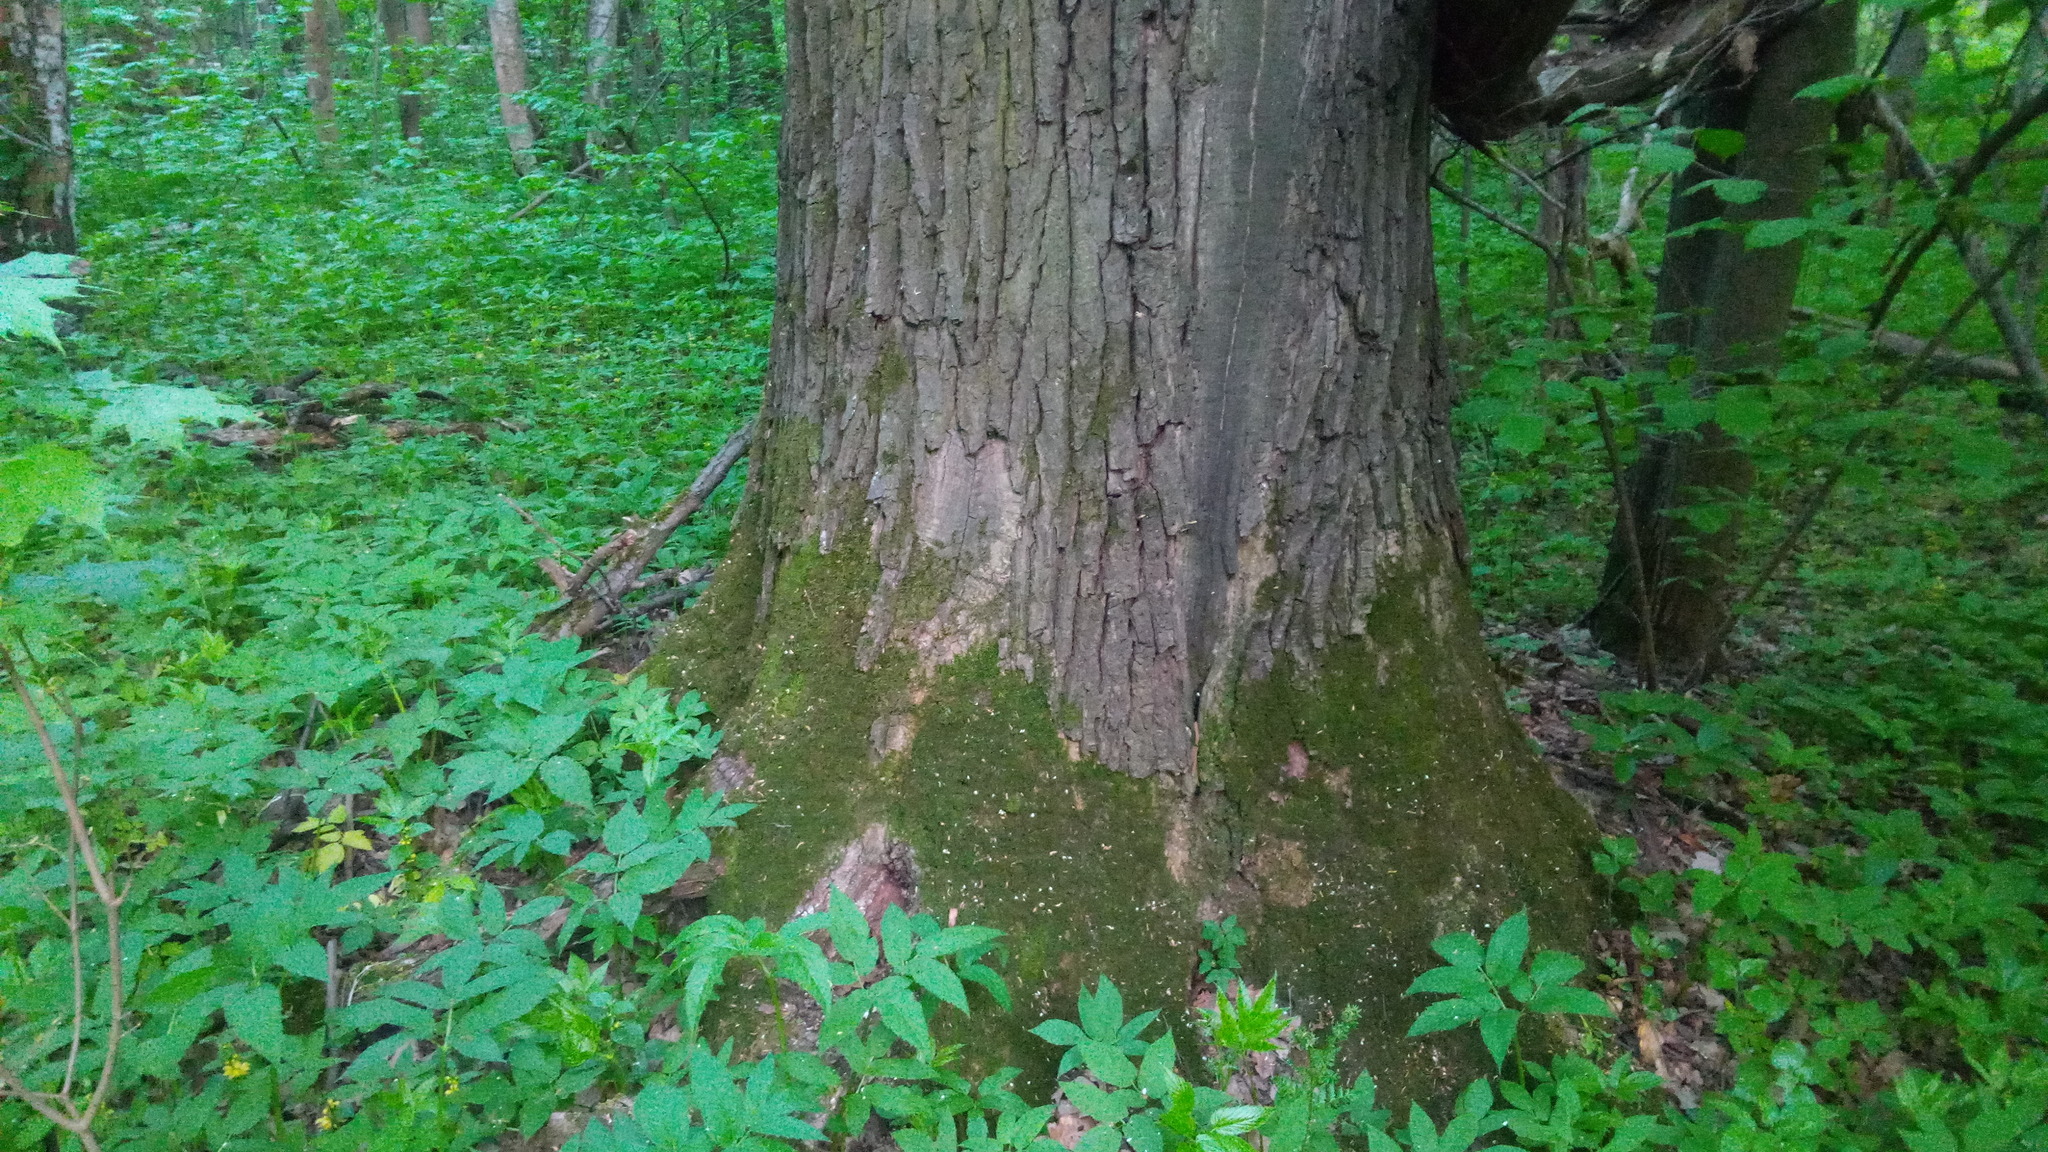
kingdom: Plantae
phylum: Tracheophyta
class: Magnoliopsida
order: Fagales
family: Fagaceae
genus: Quercus
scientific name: Quercus robur
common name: Pedunculate oak
